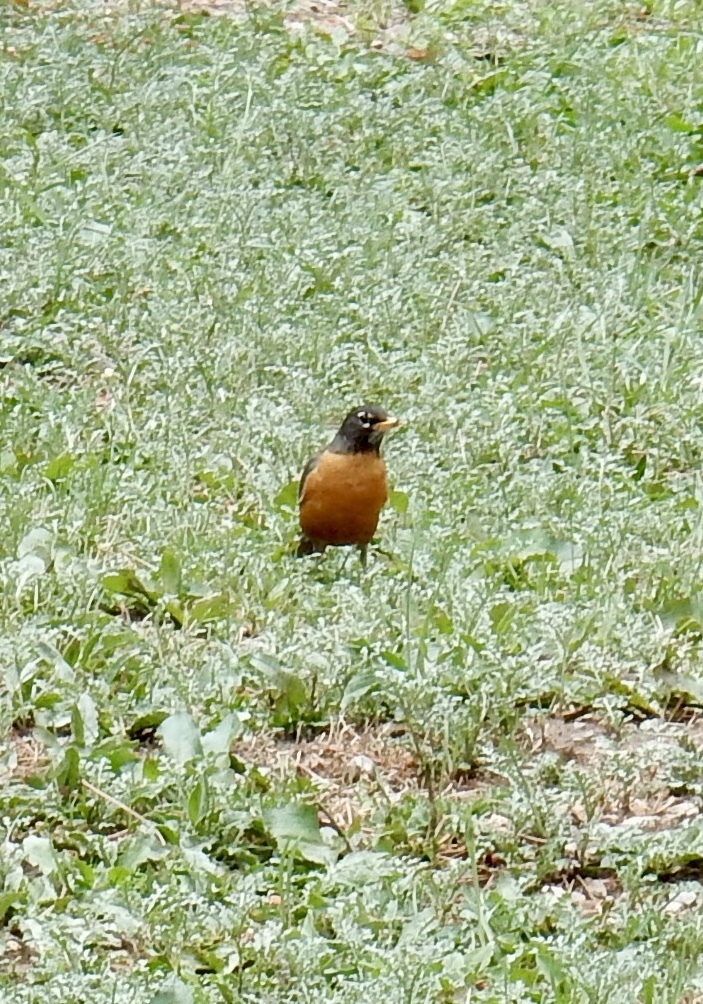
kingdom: Animalia
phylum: Chordata
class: Aves
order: Passeriformes
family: Turdidae
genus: Turdus
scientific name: Turdus migratorius
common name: American robin
